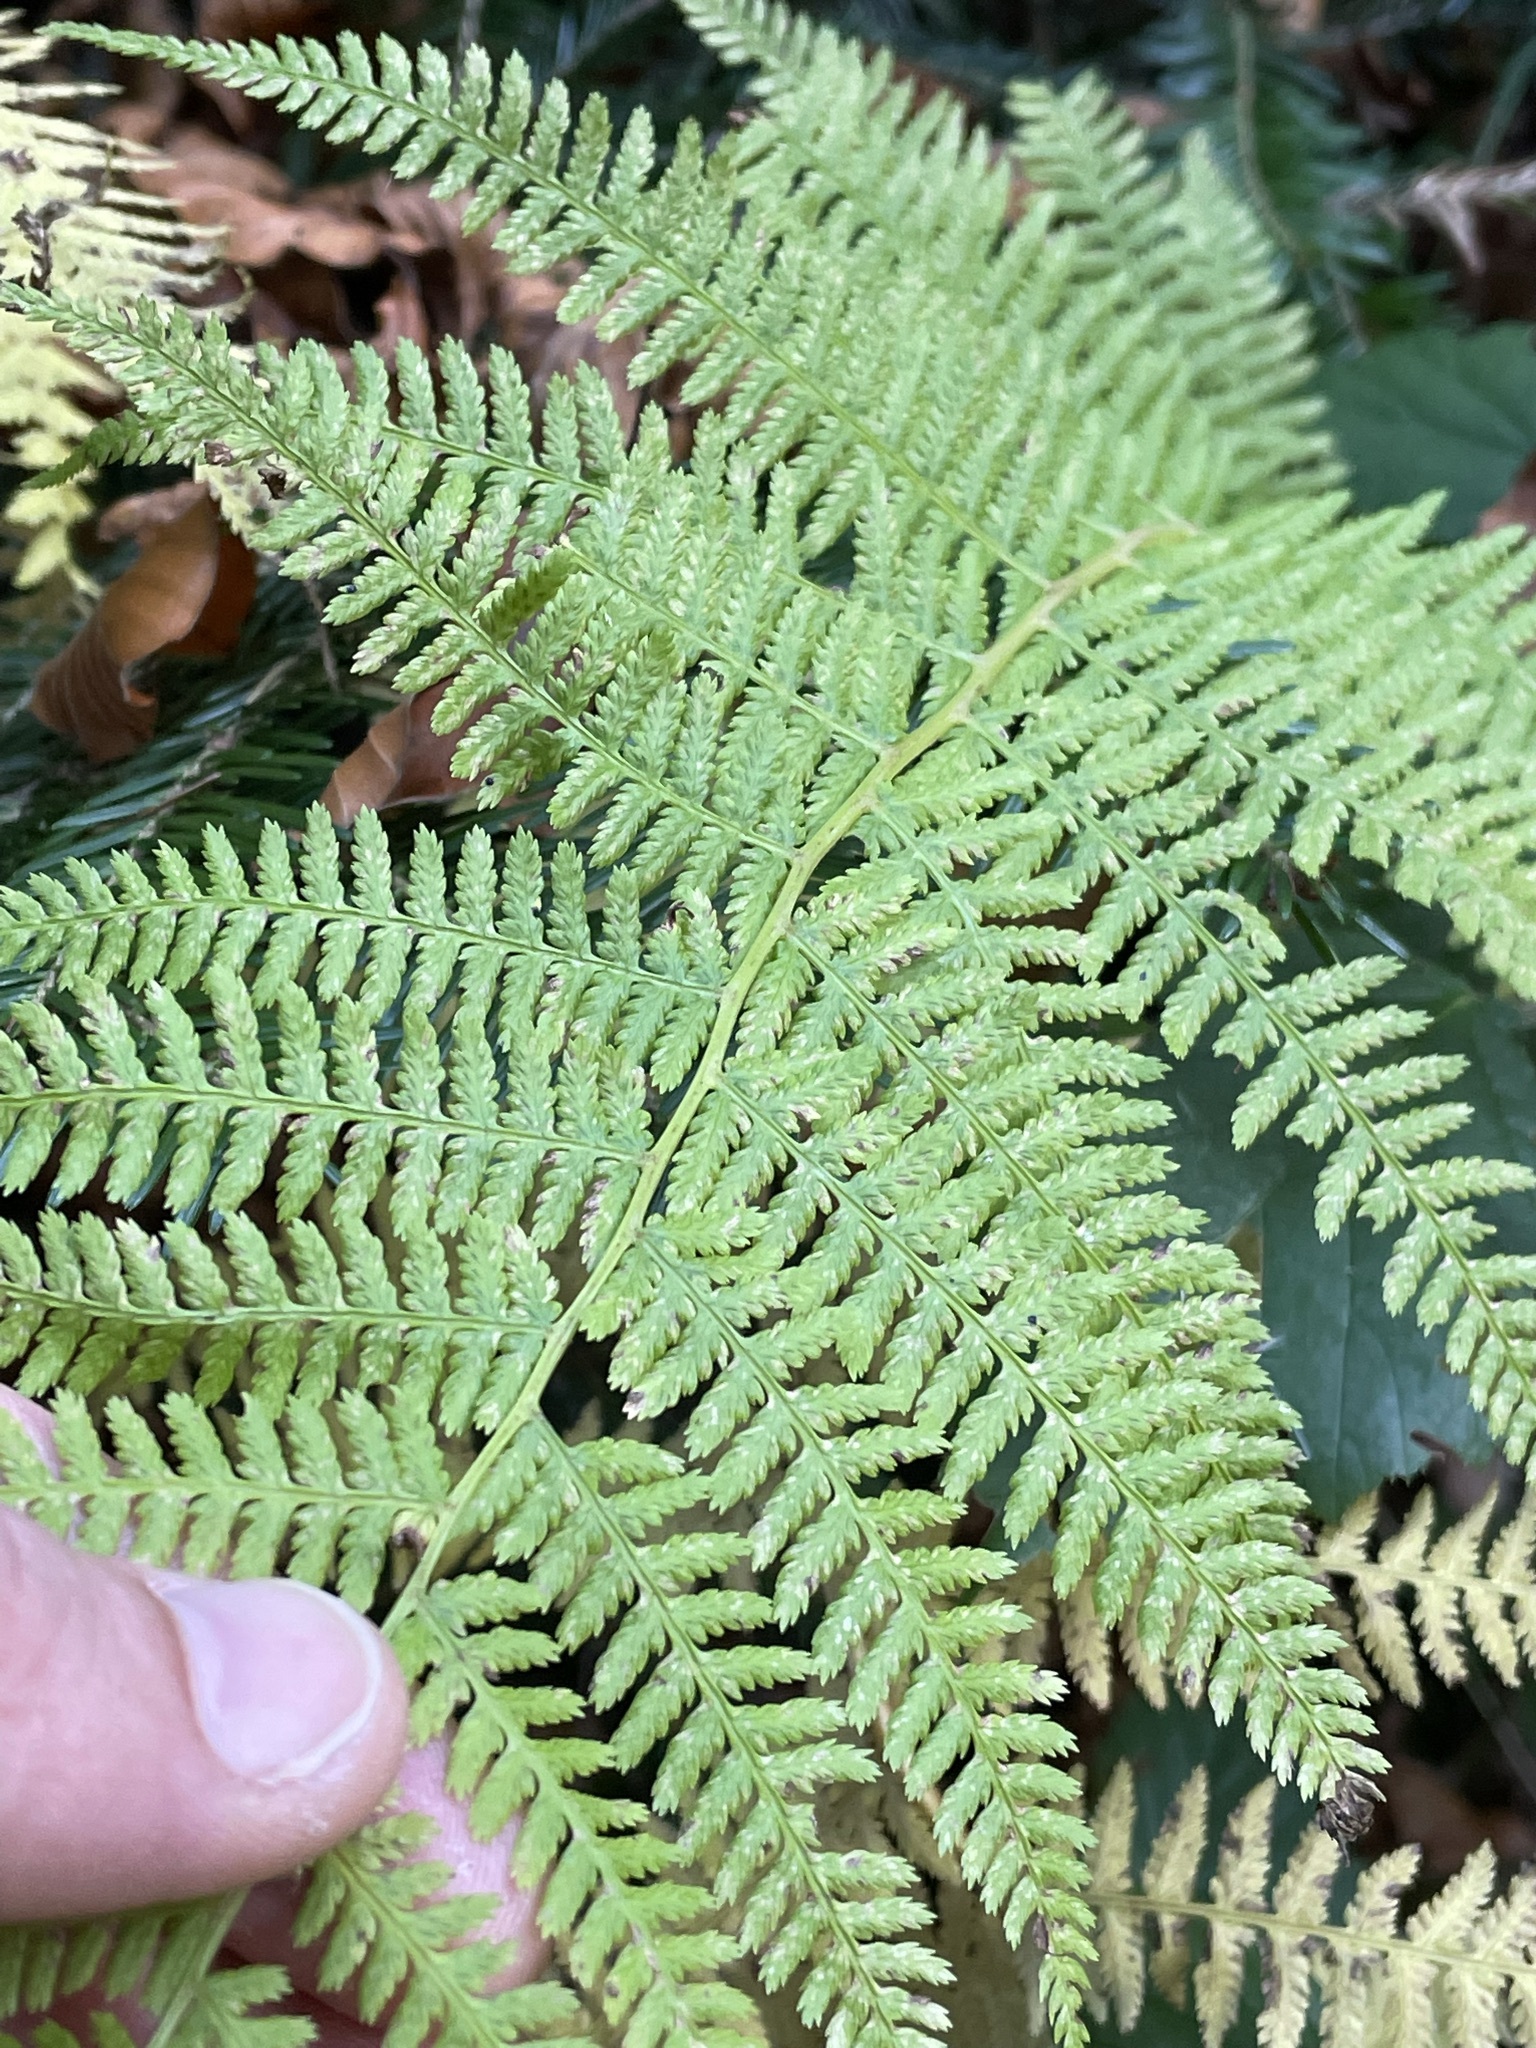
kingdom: Plantae
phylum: Tracheophyta
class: Polypodiopsida
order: Polypodiales
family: Athyriaceae
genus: Athyrium
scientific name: Athyrium filix-femina
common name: Lady fern
